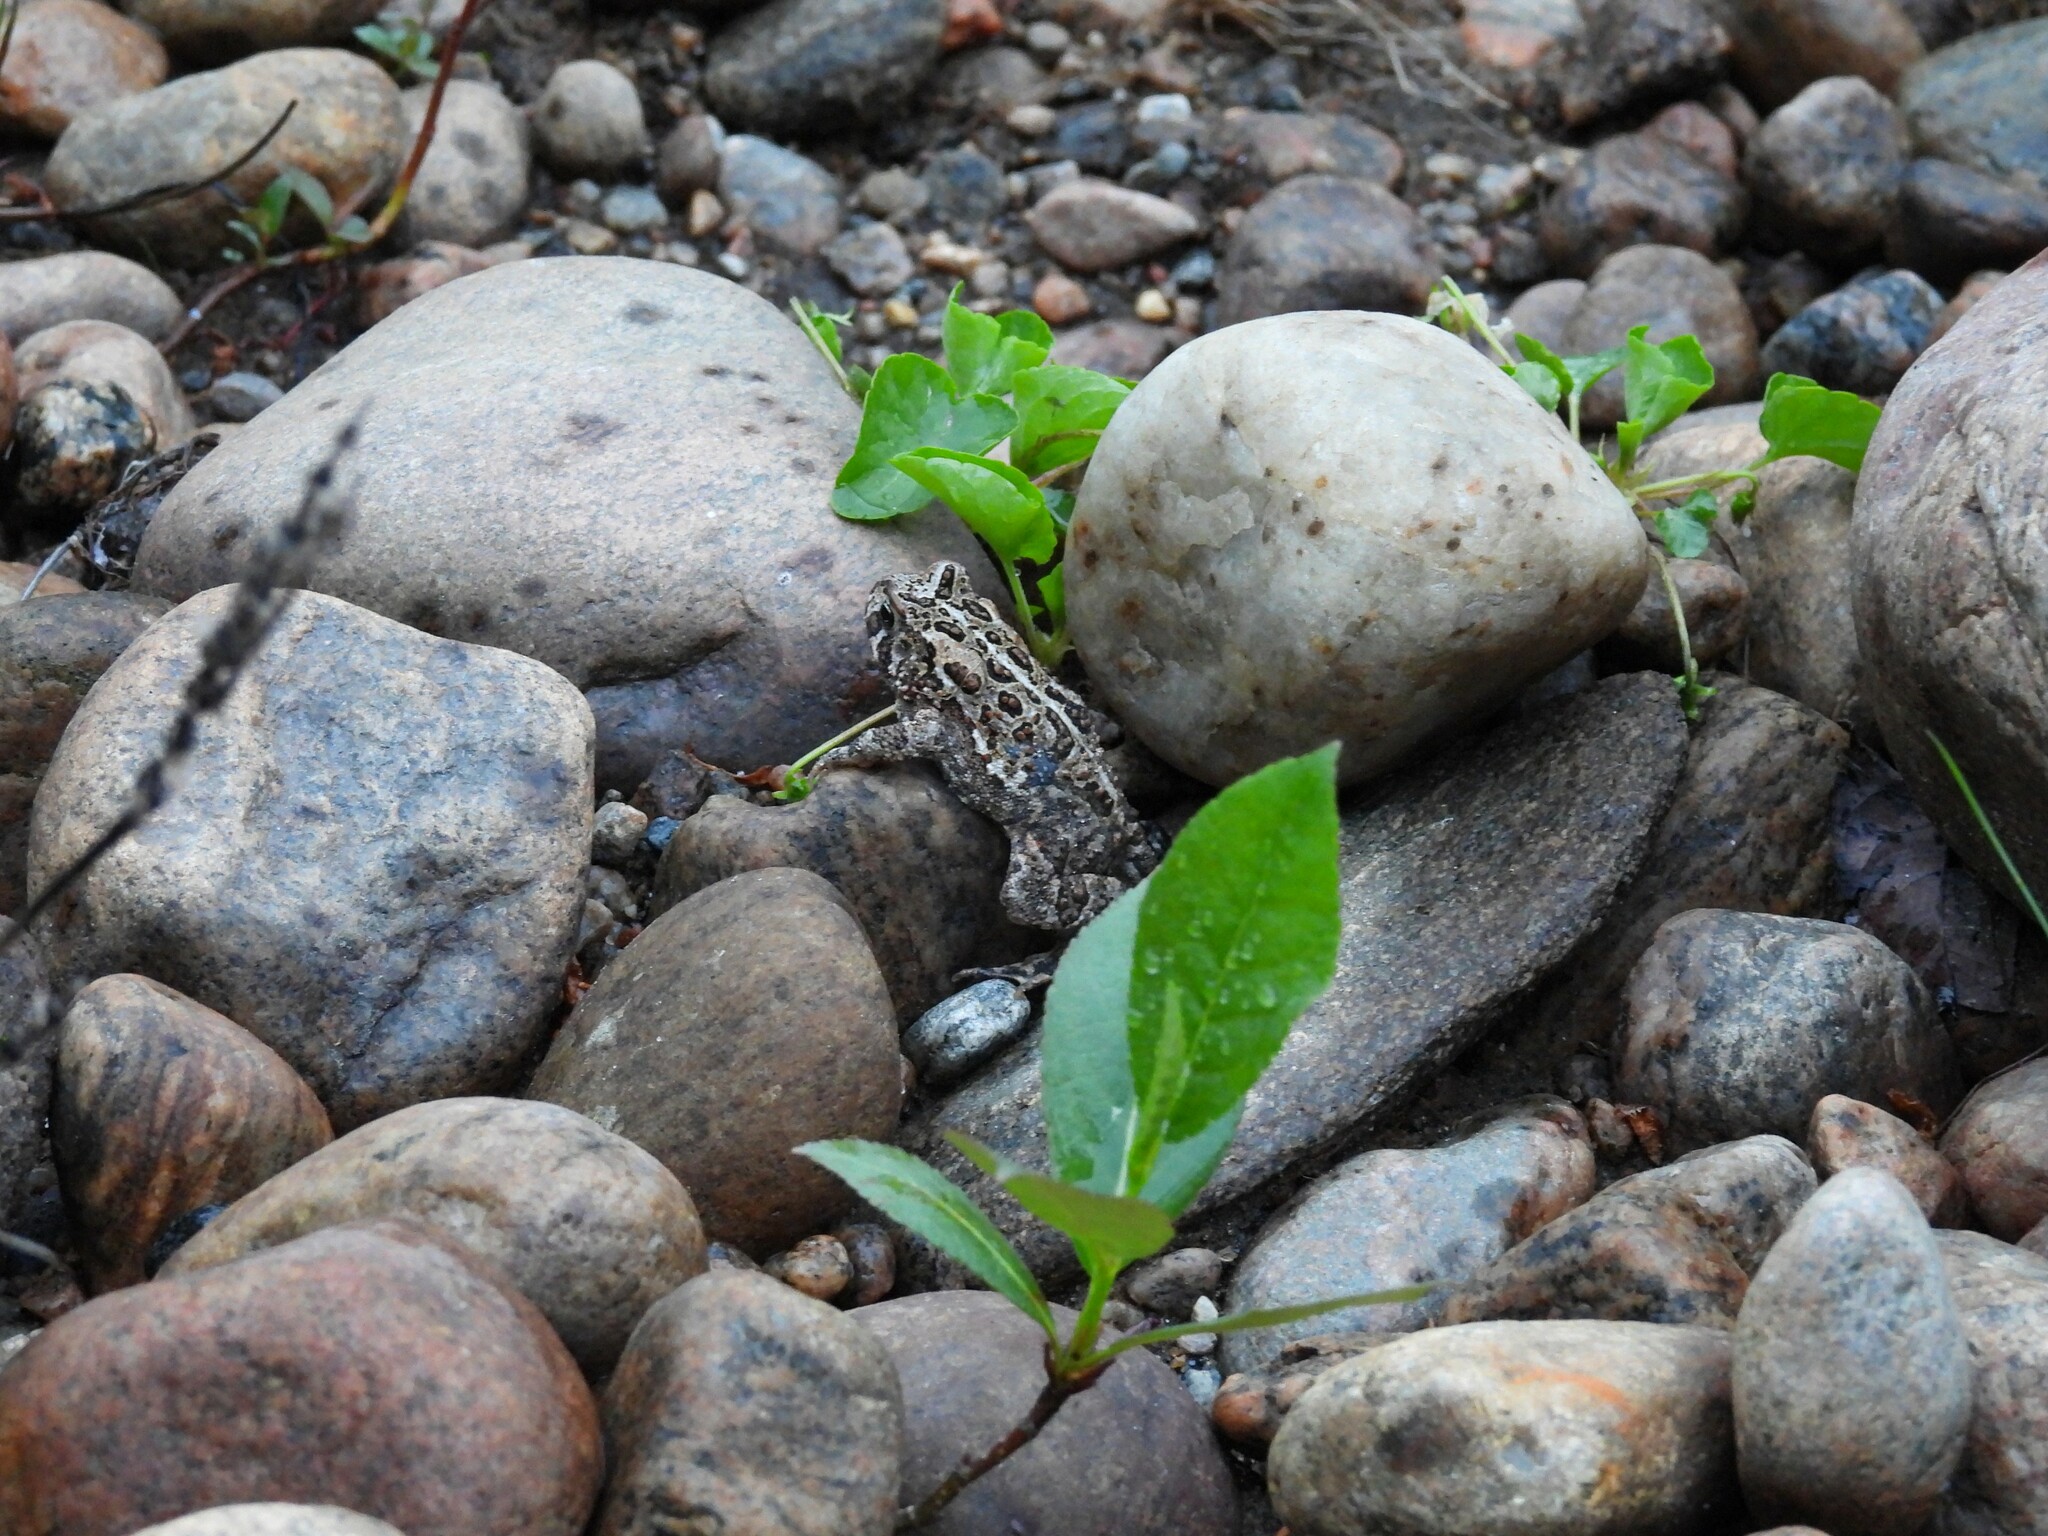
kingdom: Animalia
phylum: Chordata
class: Amphibia
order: Anura
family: Bufonidae
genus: Anaxyrus
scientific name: Anaxyrus americanus
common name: American toad
